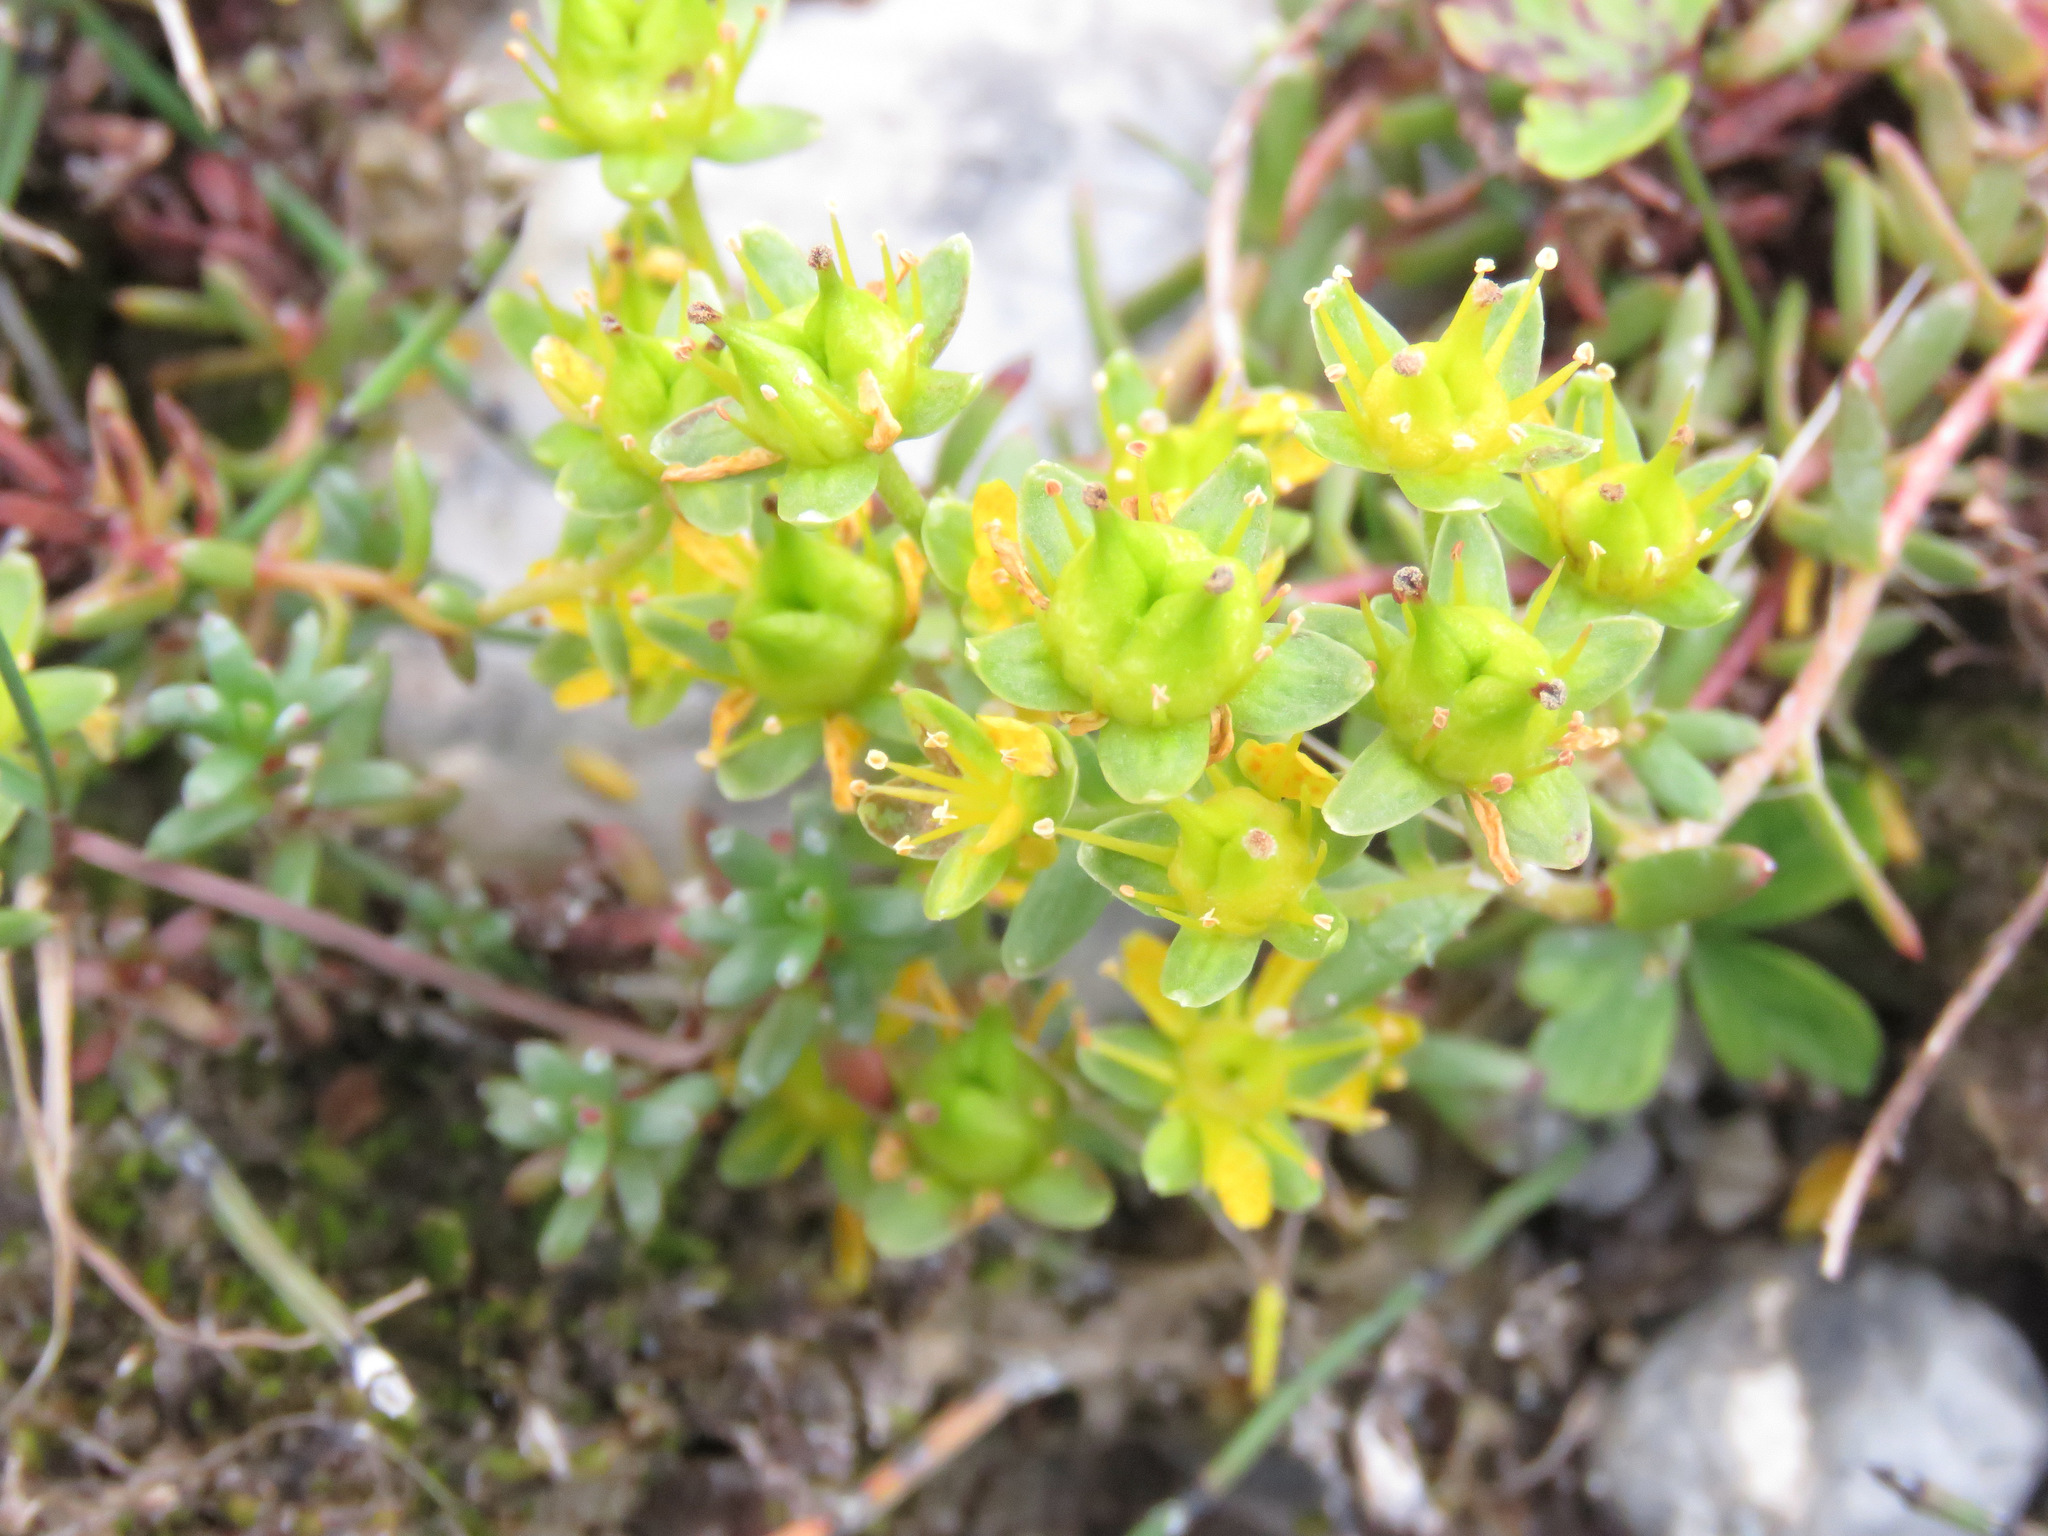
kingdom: Plantae
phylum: Tracheophyta
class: Magnoliopsida
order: Saxifragales
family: Saxifragaceae
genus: Saxifraga
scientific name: Saxifraga aizoides
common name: Yellow mountain saxifrage
